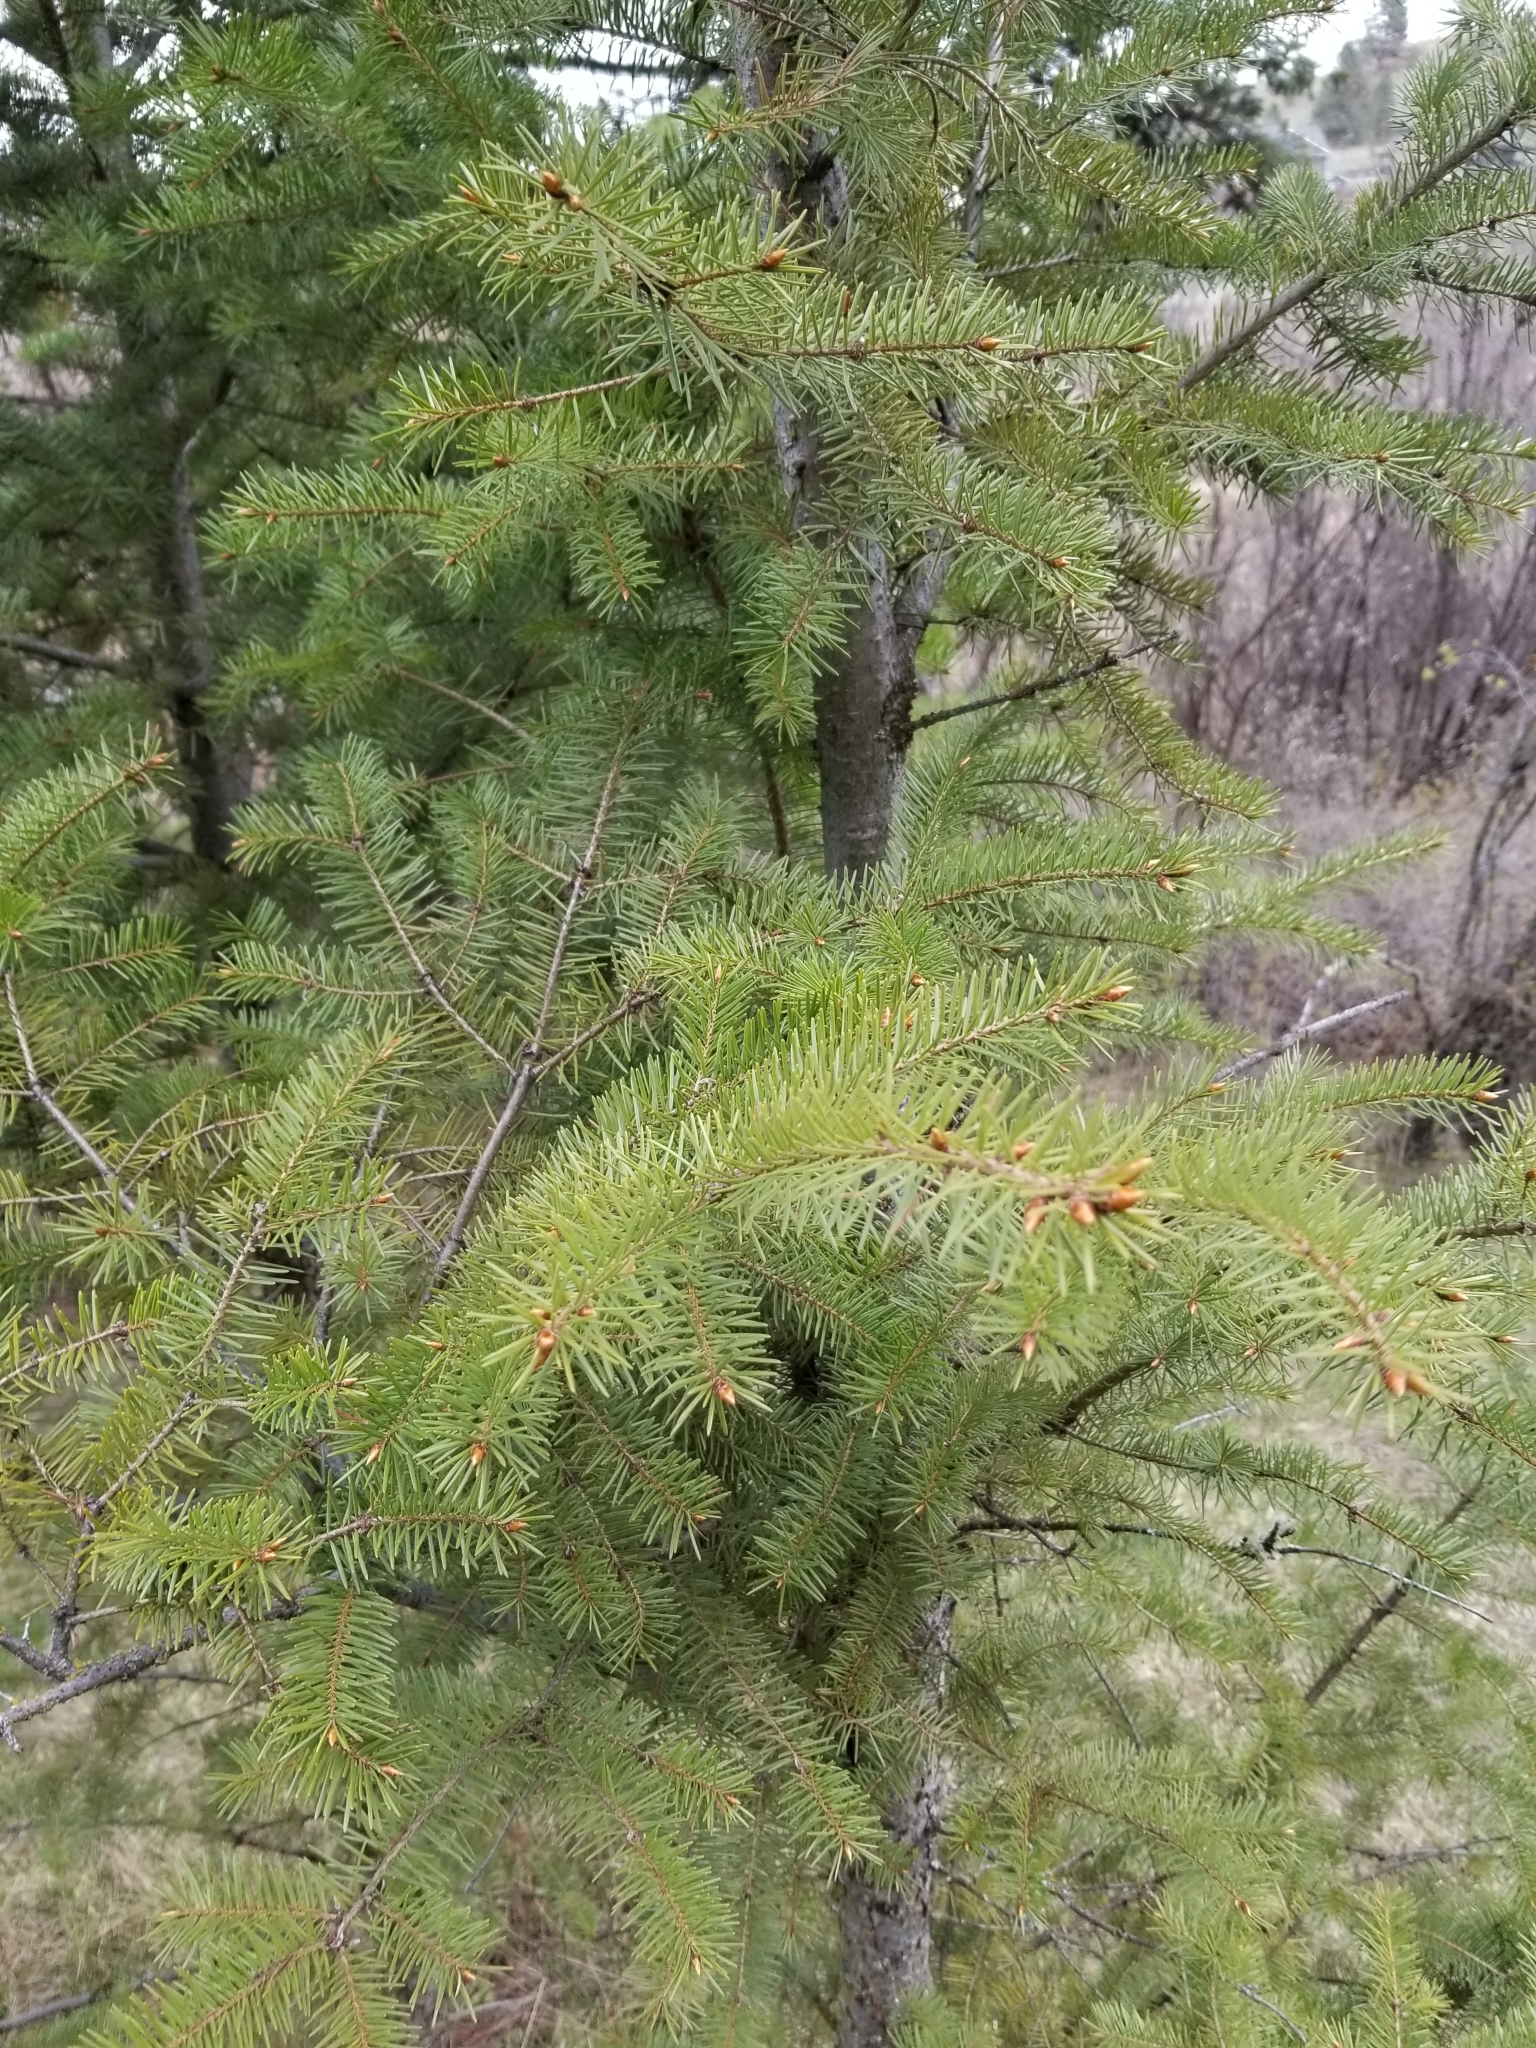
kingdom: Plantae
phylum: Tracheophyta
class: Pinopsida
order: Pinales
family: Pinaceae
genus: Pseudotsuga
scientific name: Pseudotsuga menziesii
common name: Douglas fir
